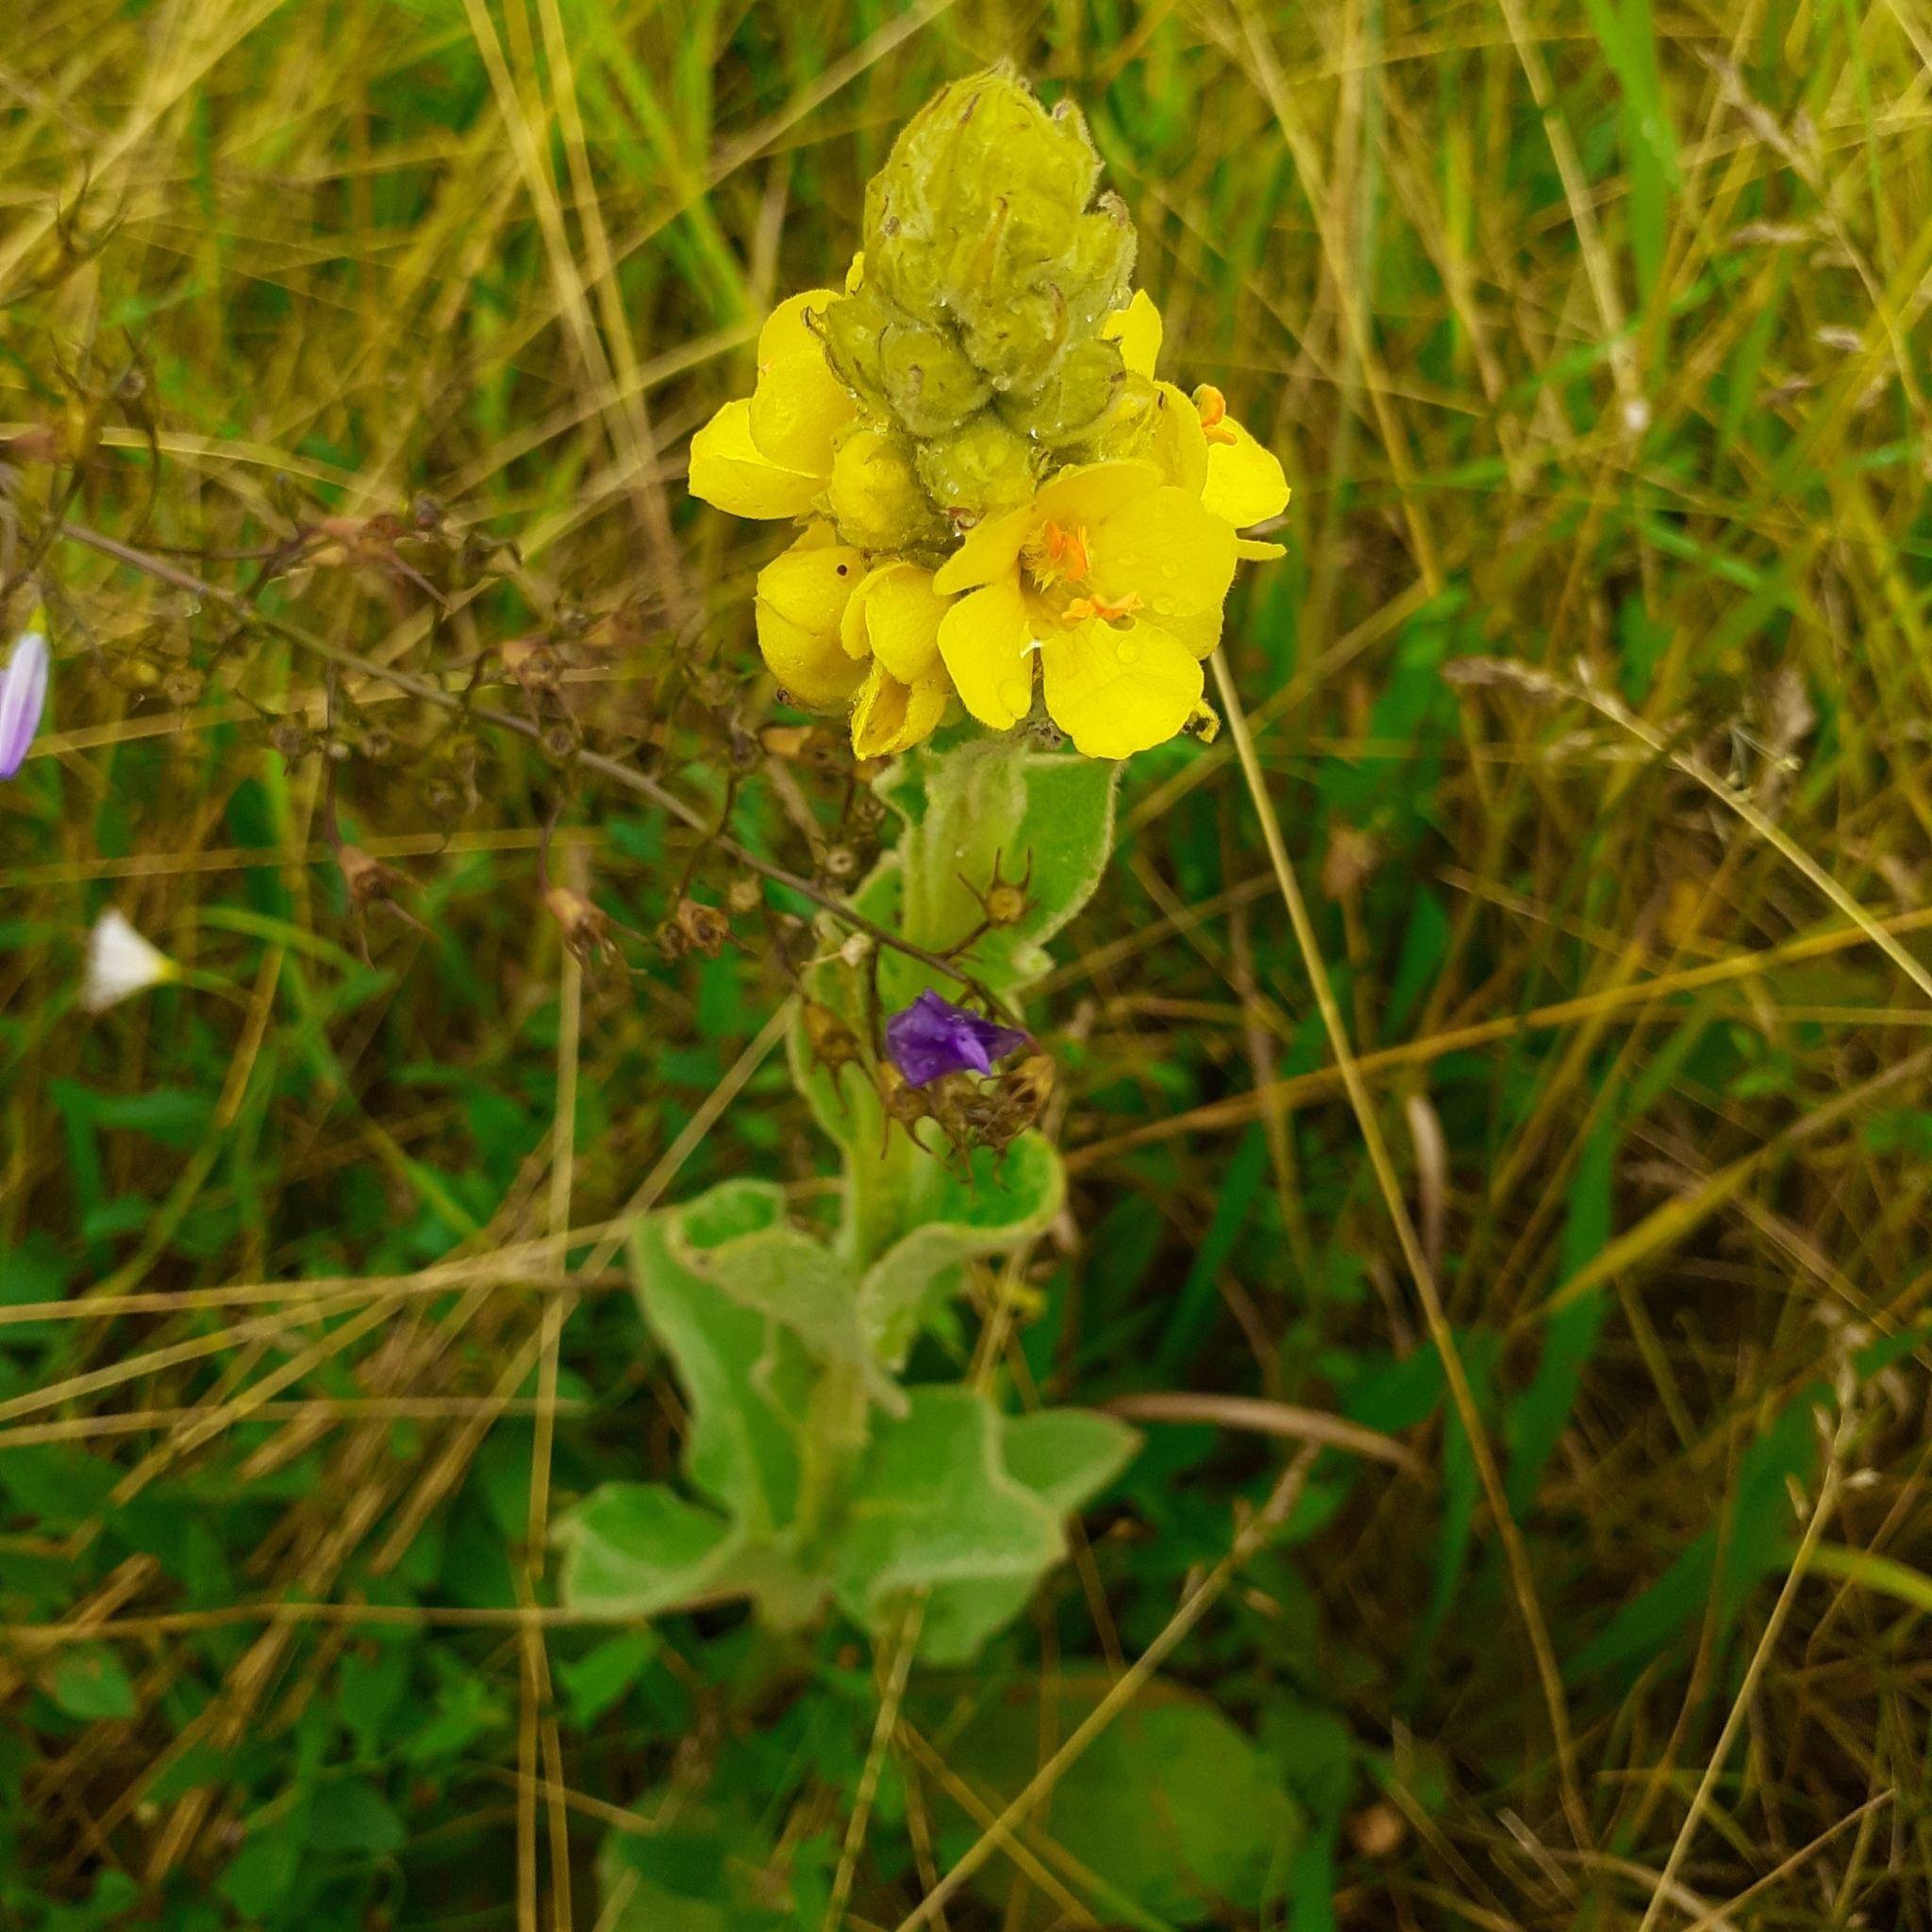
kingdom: Plantae
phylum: Tracheophyta
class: Magnoliopsida
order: Lamiales
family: Scrophulariaceae
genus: Verbascum
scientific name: Verbascum thapsus
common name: Common mullein
